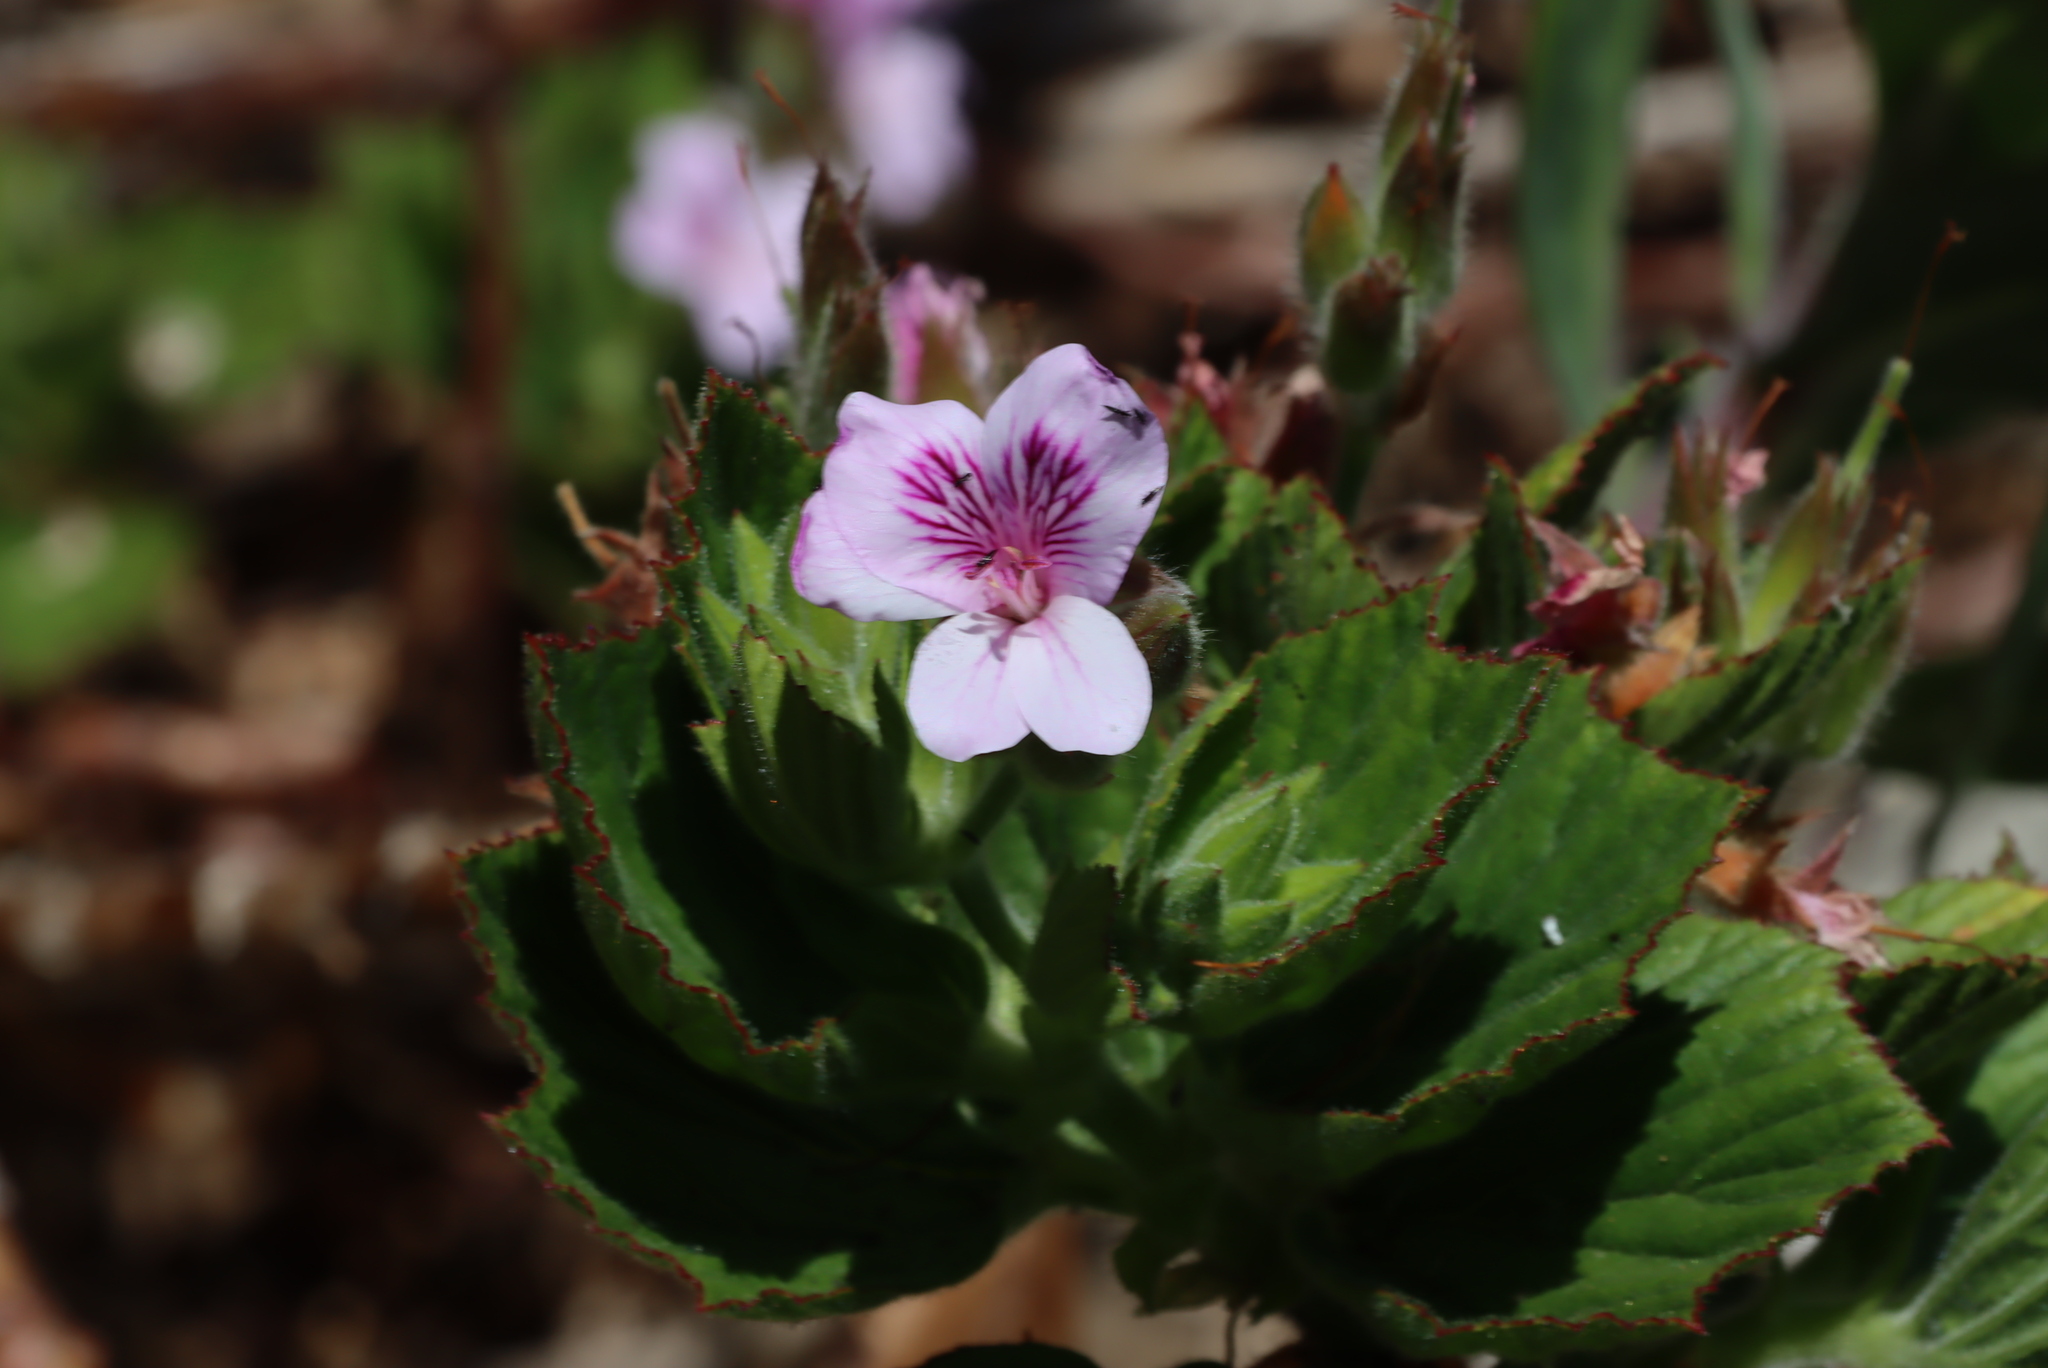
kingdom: Plantae
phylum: Tracheophyta
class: Magnoliopsida
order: Geraniales
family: Geraniaceae
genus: Pelargonium
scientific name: Pelargonium cucullatum
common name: Tree pelargonium
